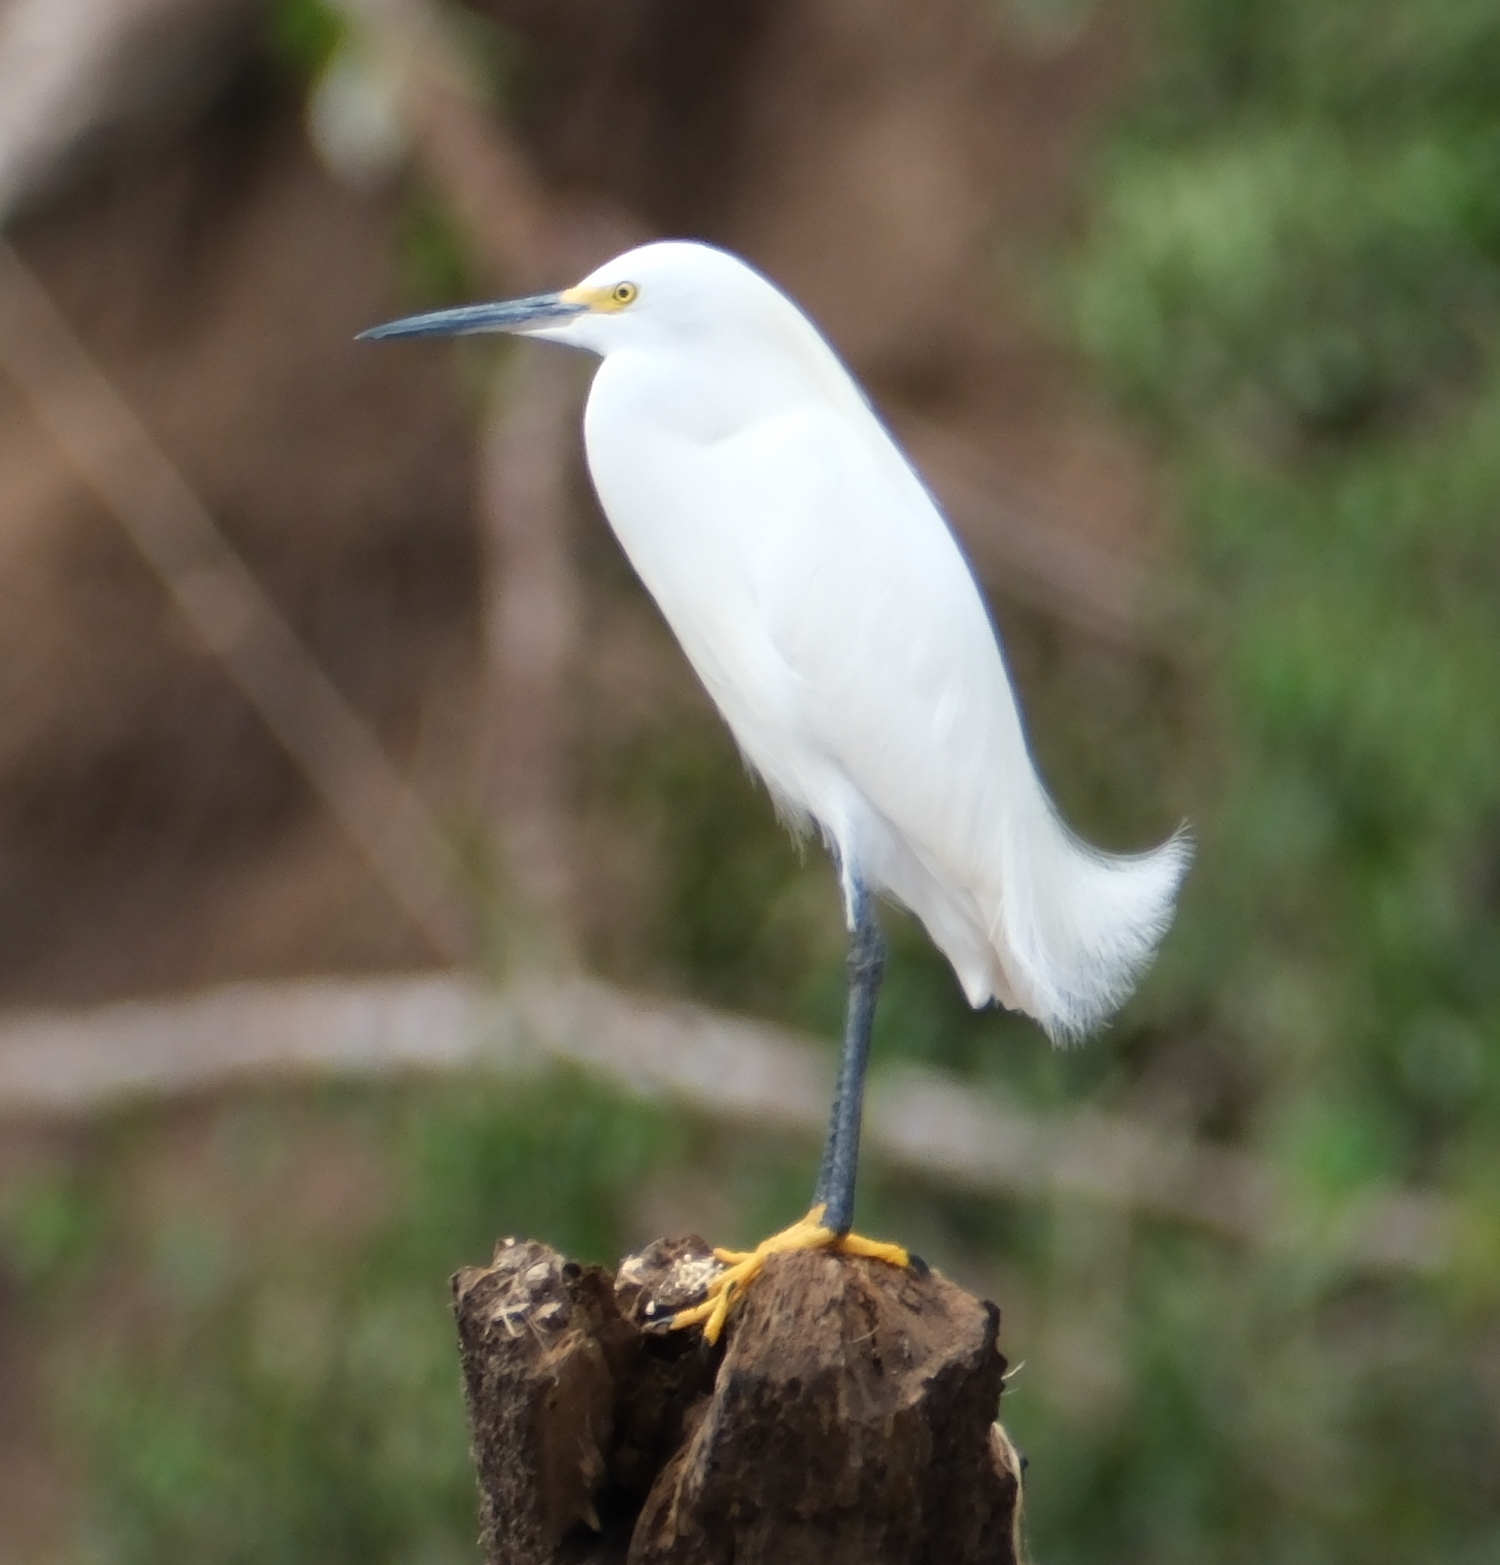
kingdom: Animalia
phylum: Chordata
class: Aves
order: Pelecaniformes
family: Ardeidae
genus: Egretta
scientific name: Egretta thula
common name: Snowy egret
